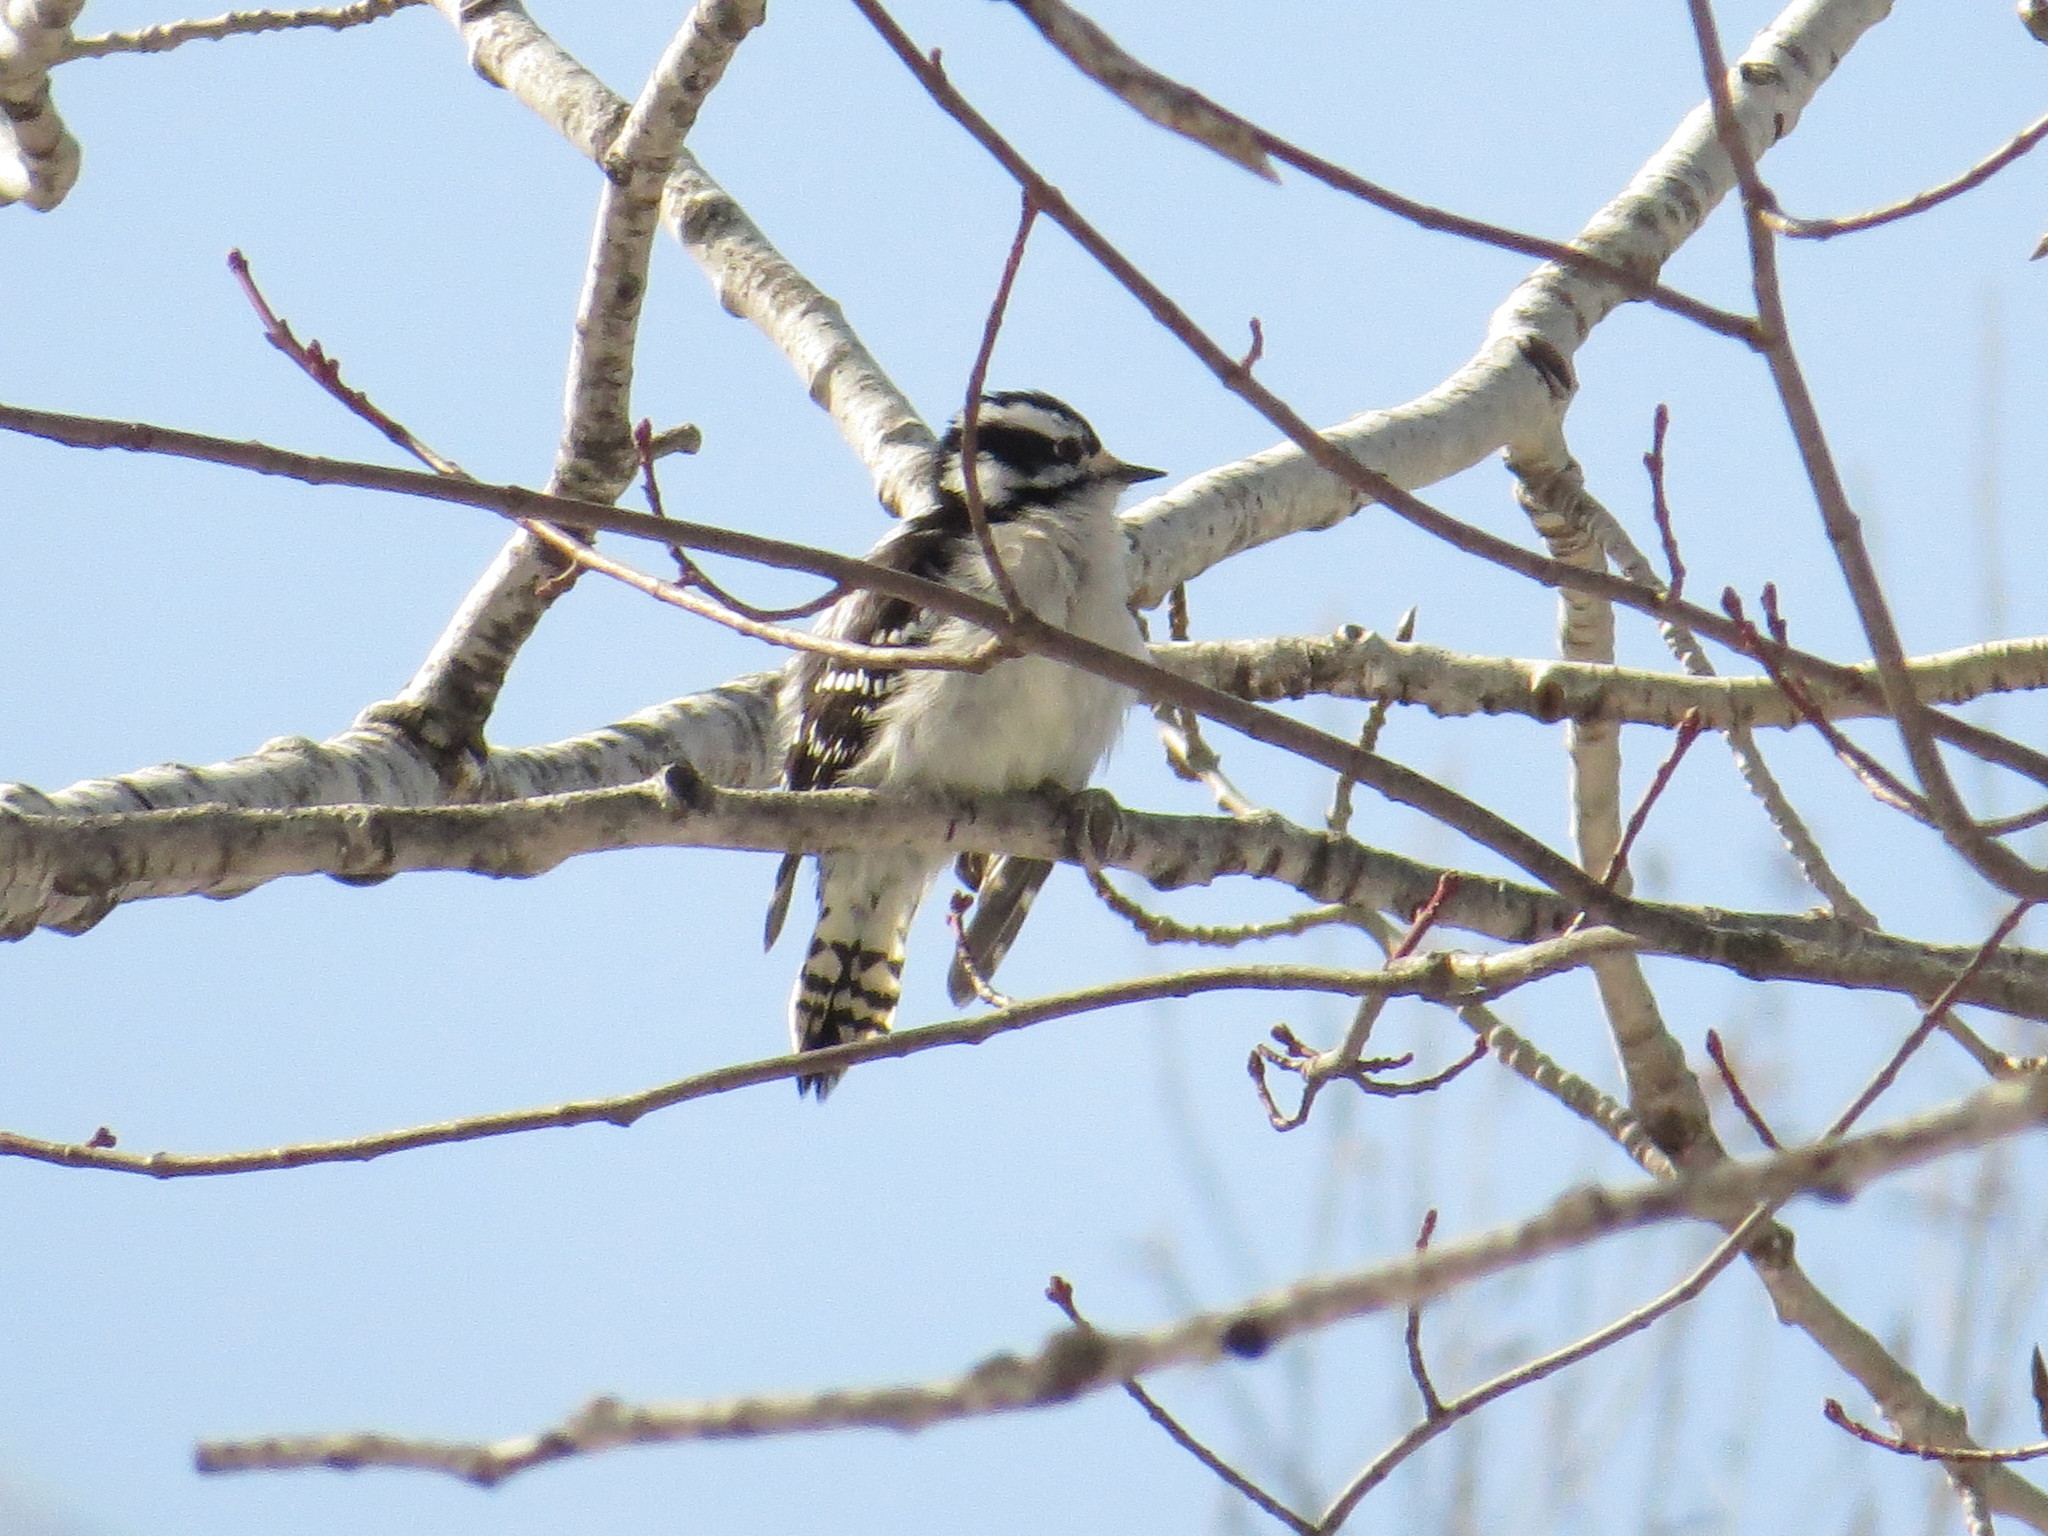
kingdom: Animalia
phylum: Chordata
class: Aves
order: Piciformes
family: Picidae
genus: Dryobates
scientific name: Dryobates pubescens
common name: Downy woodpecker
